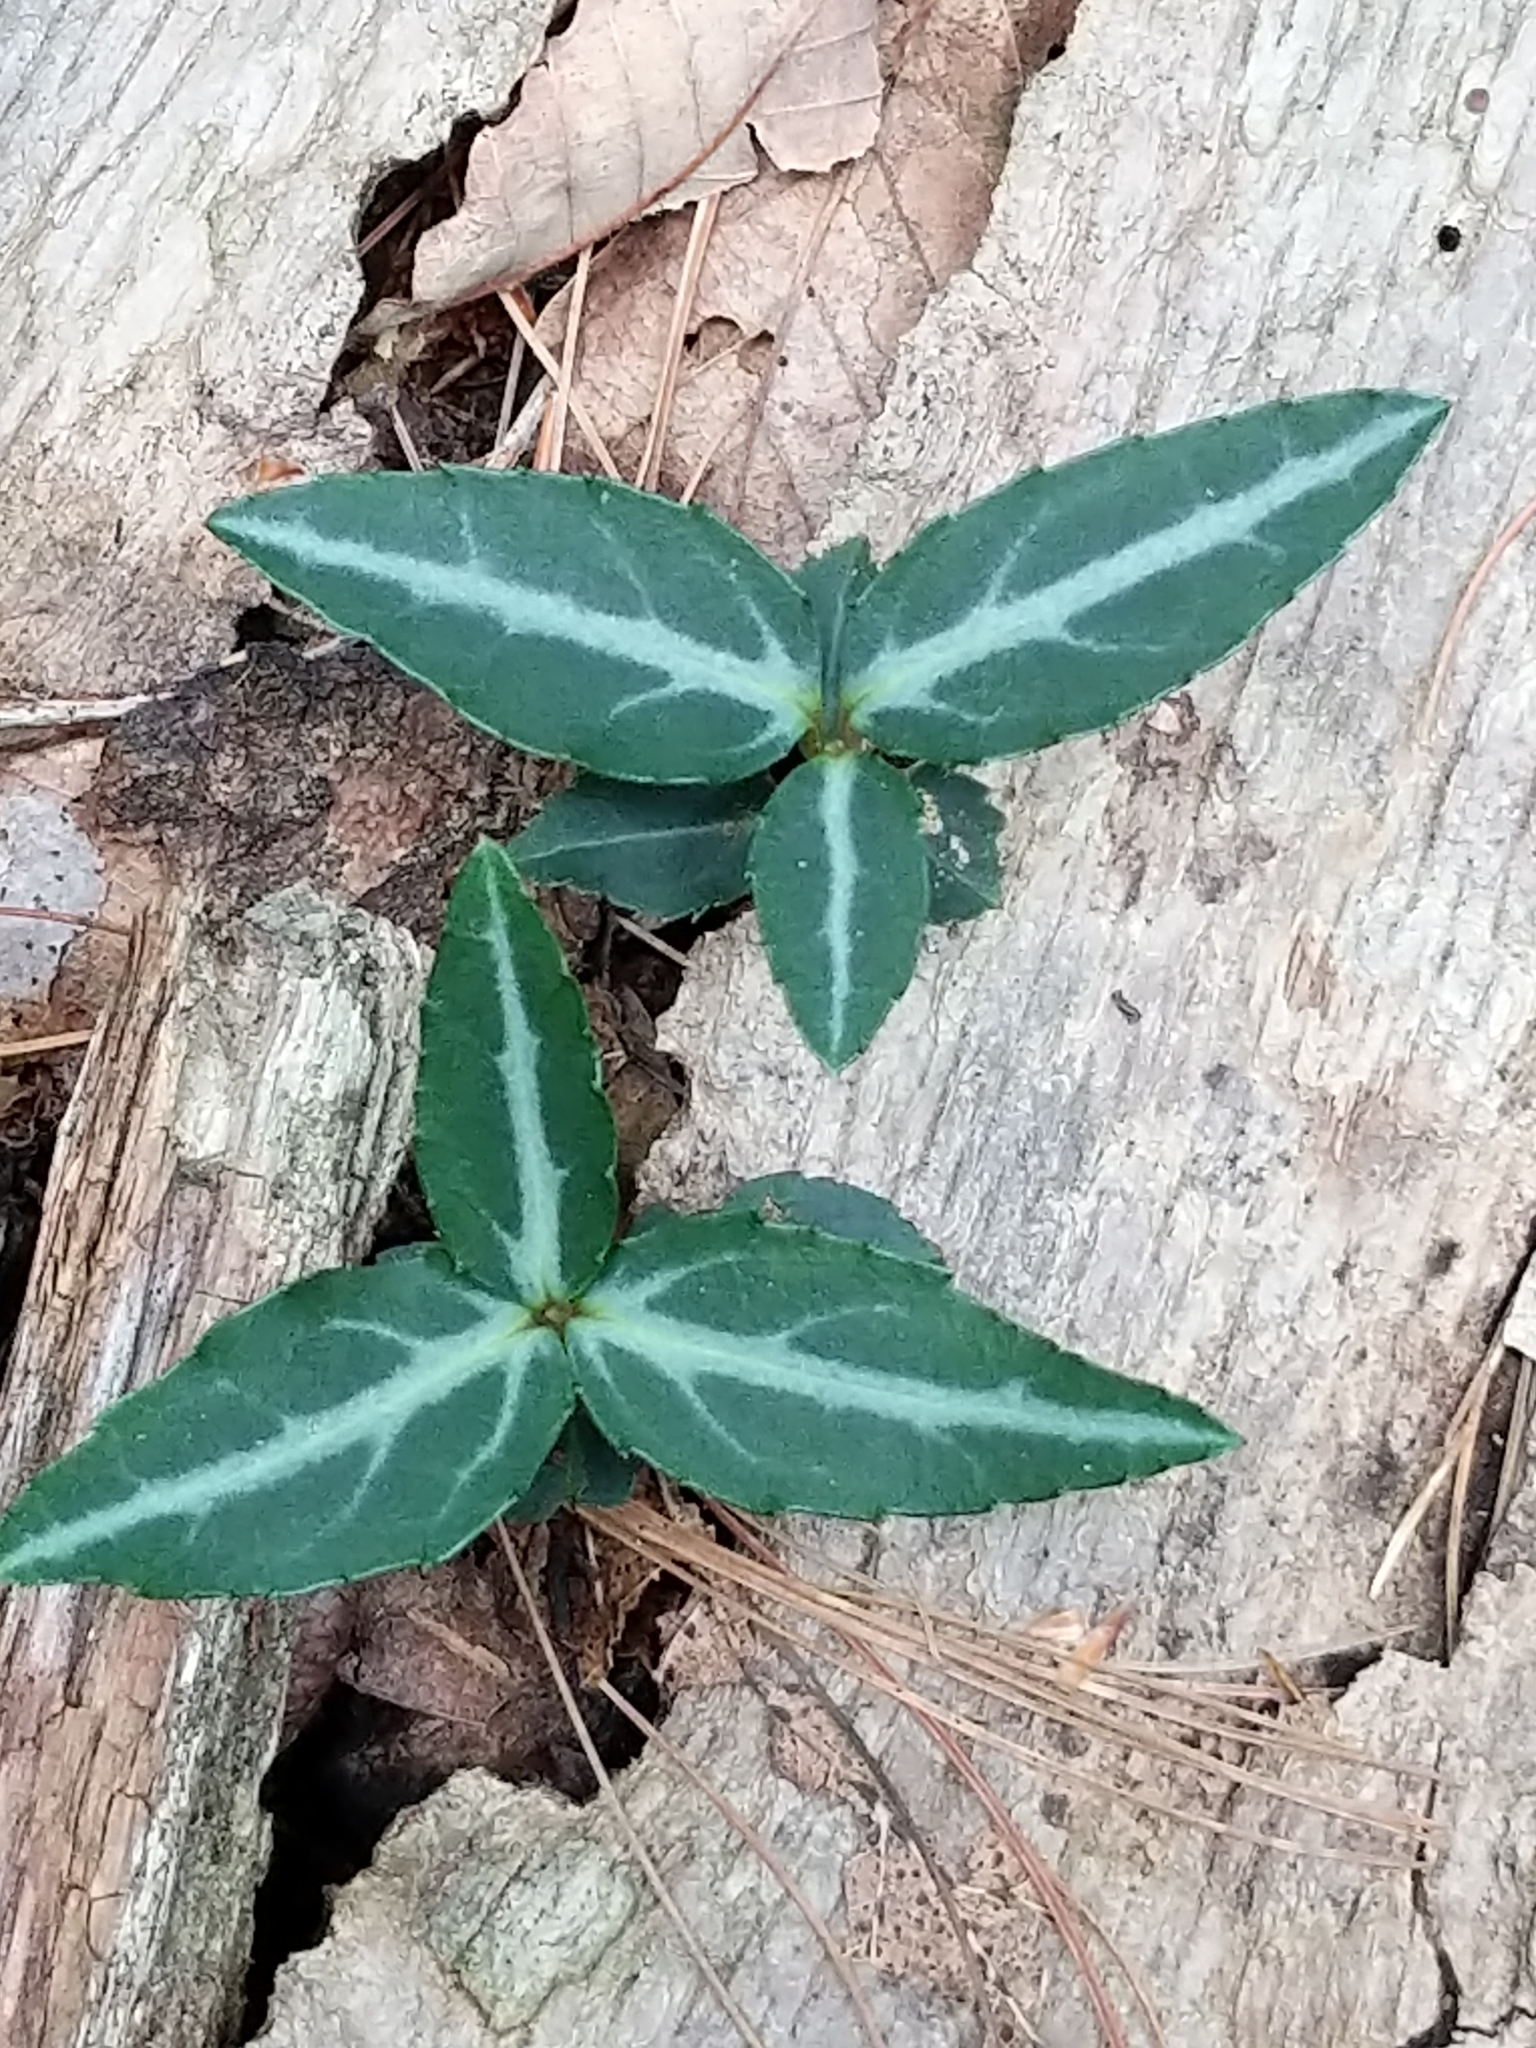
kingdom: Plantae
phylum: Tracheophyta
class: Magnoliopsida
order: Ericales
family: Ericaceae
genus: Chimaphila
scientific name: Chimaphila maculata
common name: Spotted pipsissewa
